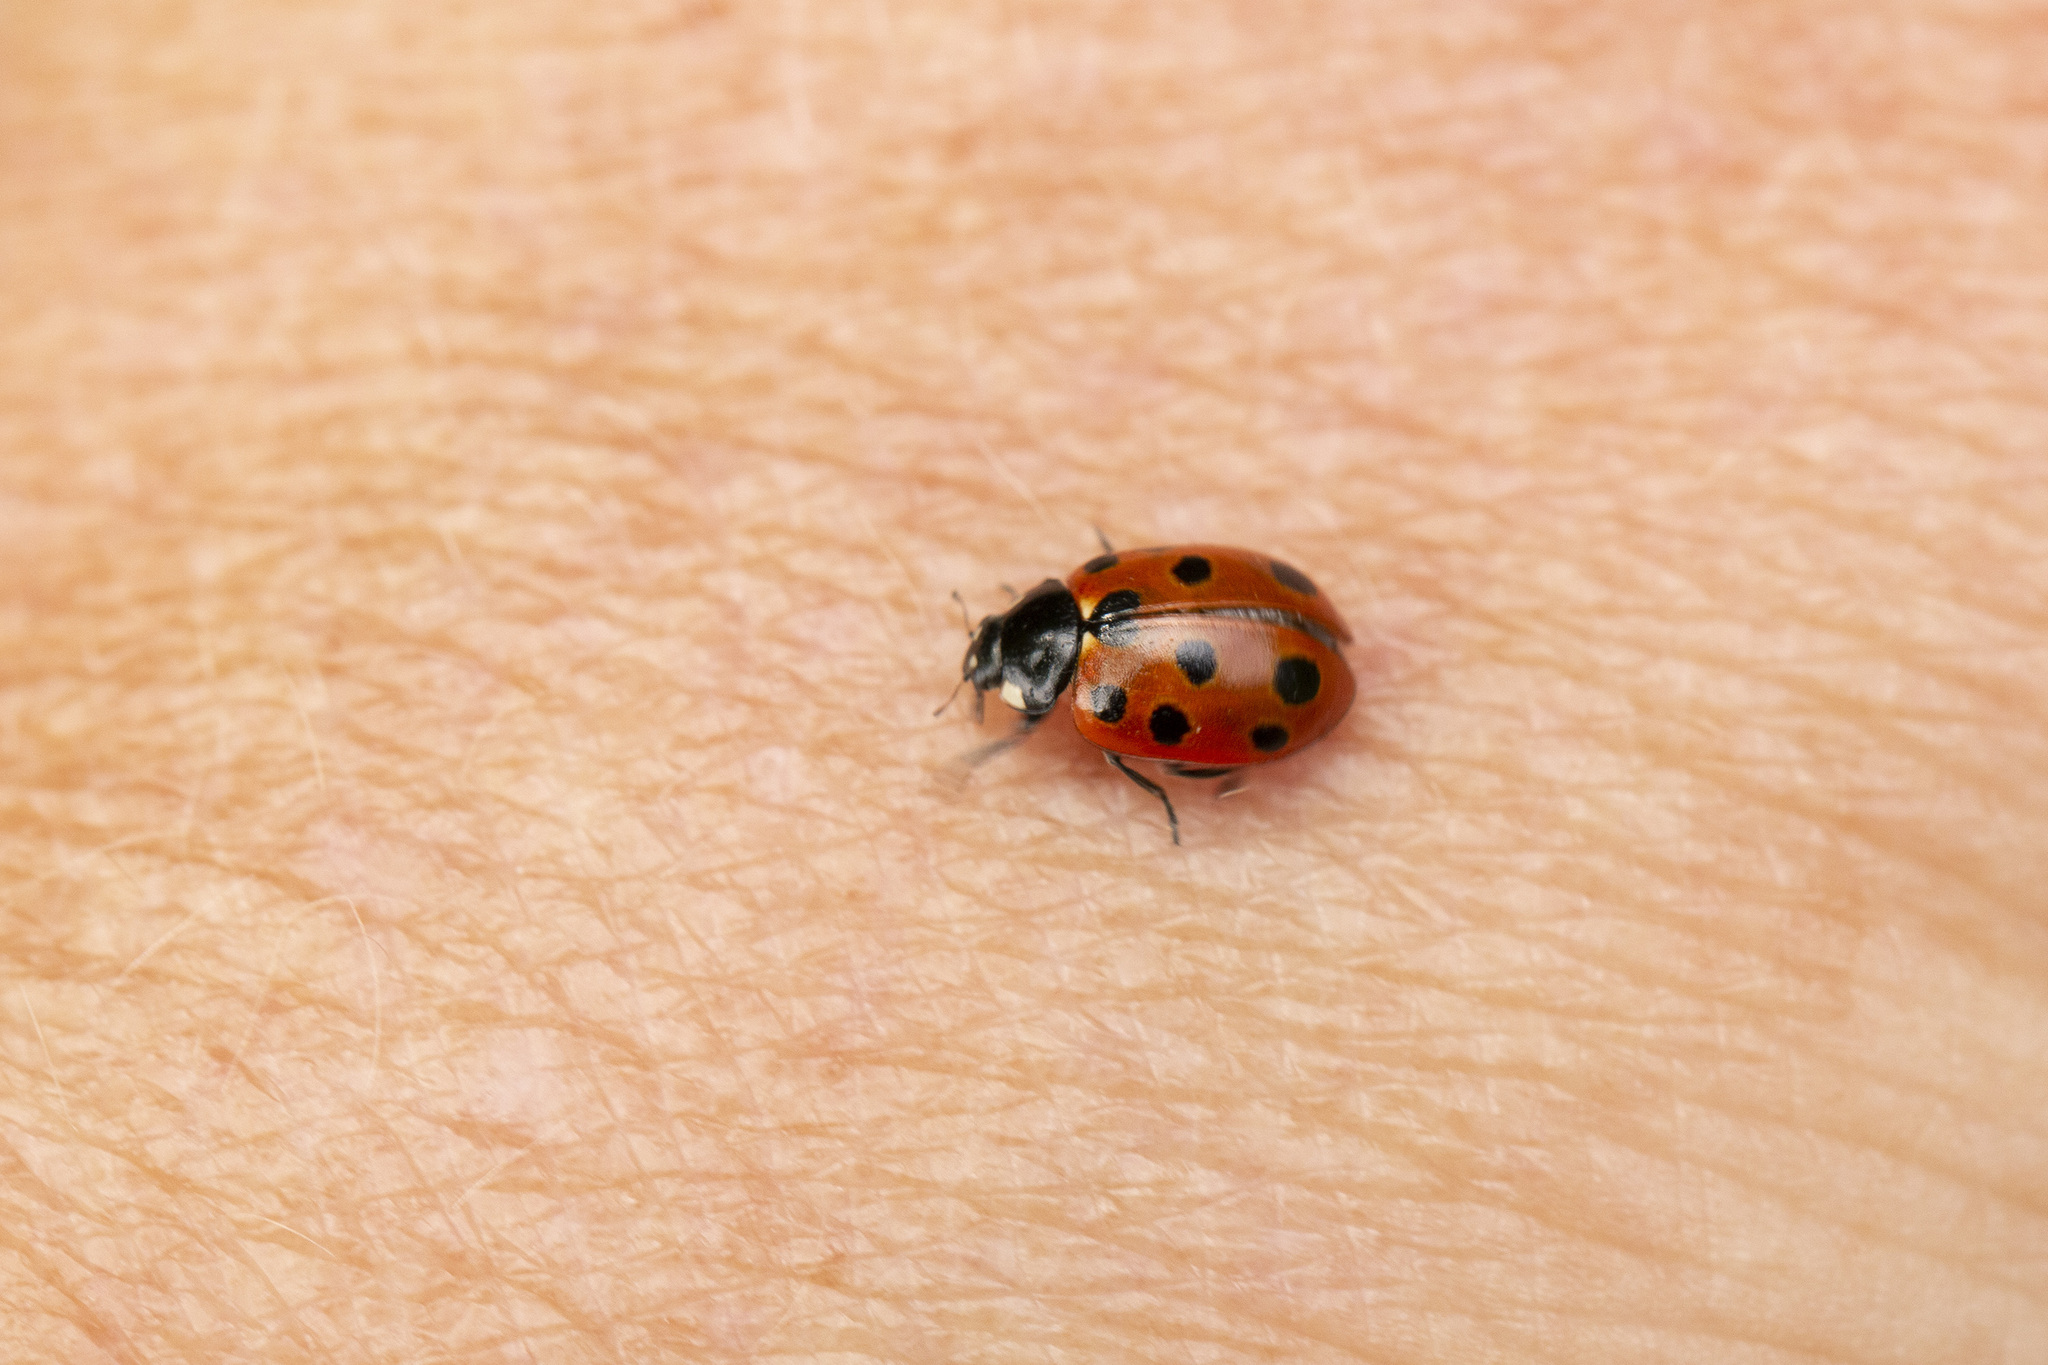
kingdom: Animalia
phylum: Arthropoda
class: Insecta
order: Coleoptera
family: Coccinellidae
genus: Coccinella
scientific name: Coccinella undecimpunctata
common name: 11-spot ladybird
